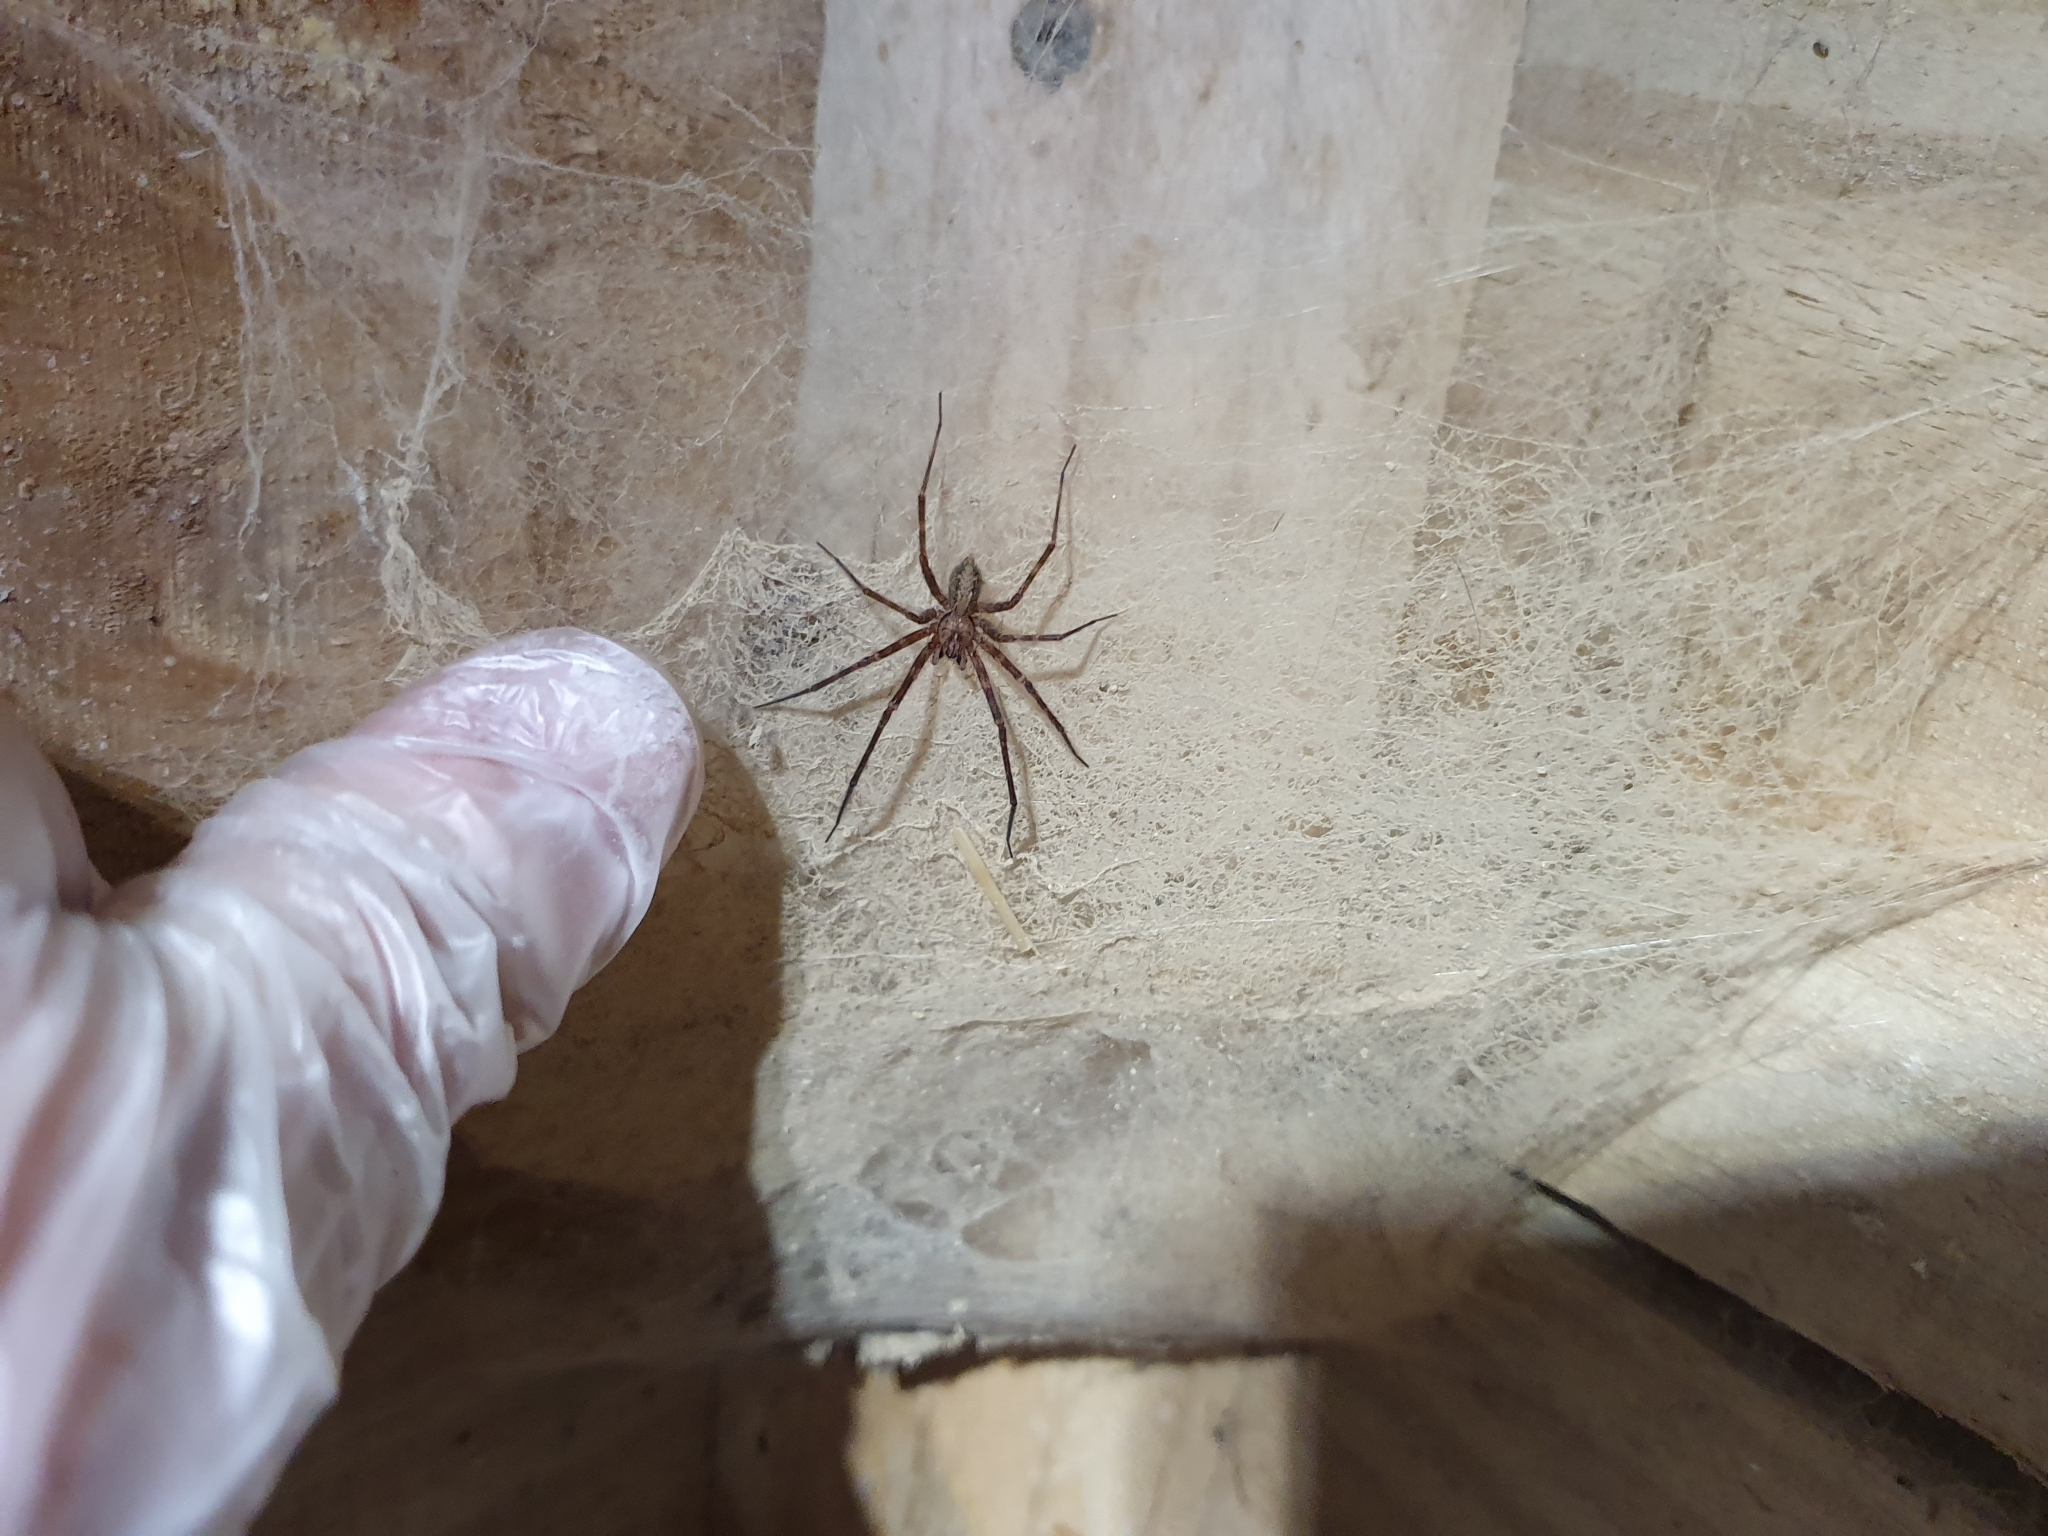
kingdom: Animalia
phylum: Arthropoda
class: Arachnida
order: Araneae
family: Stiphidiidae
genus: Stiphidion
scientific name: Stiphidion facetum
